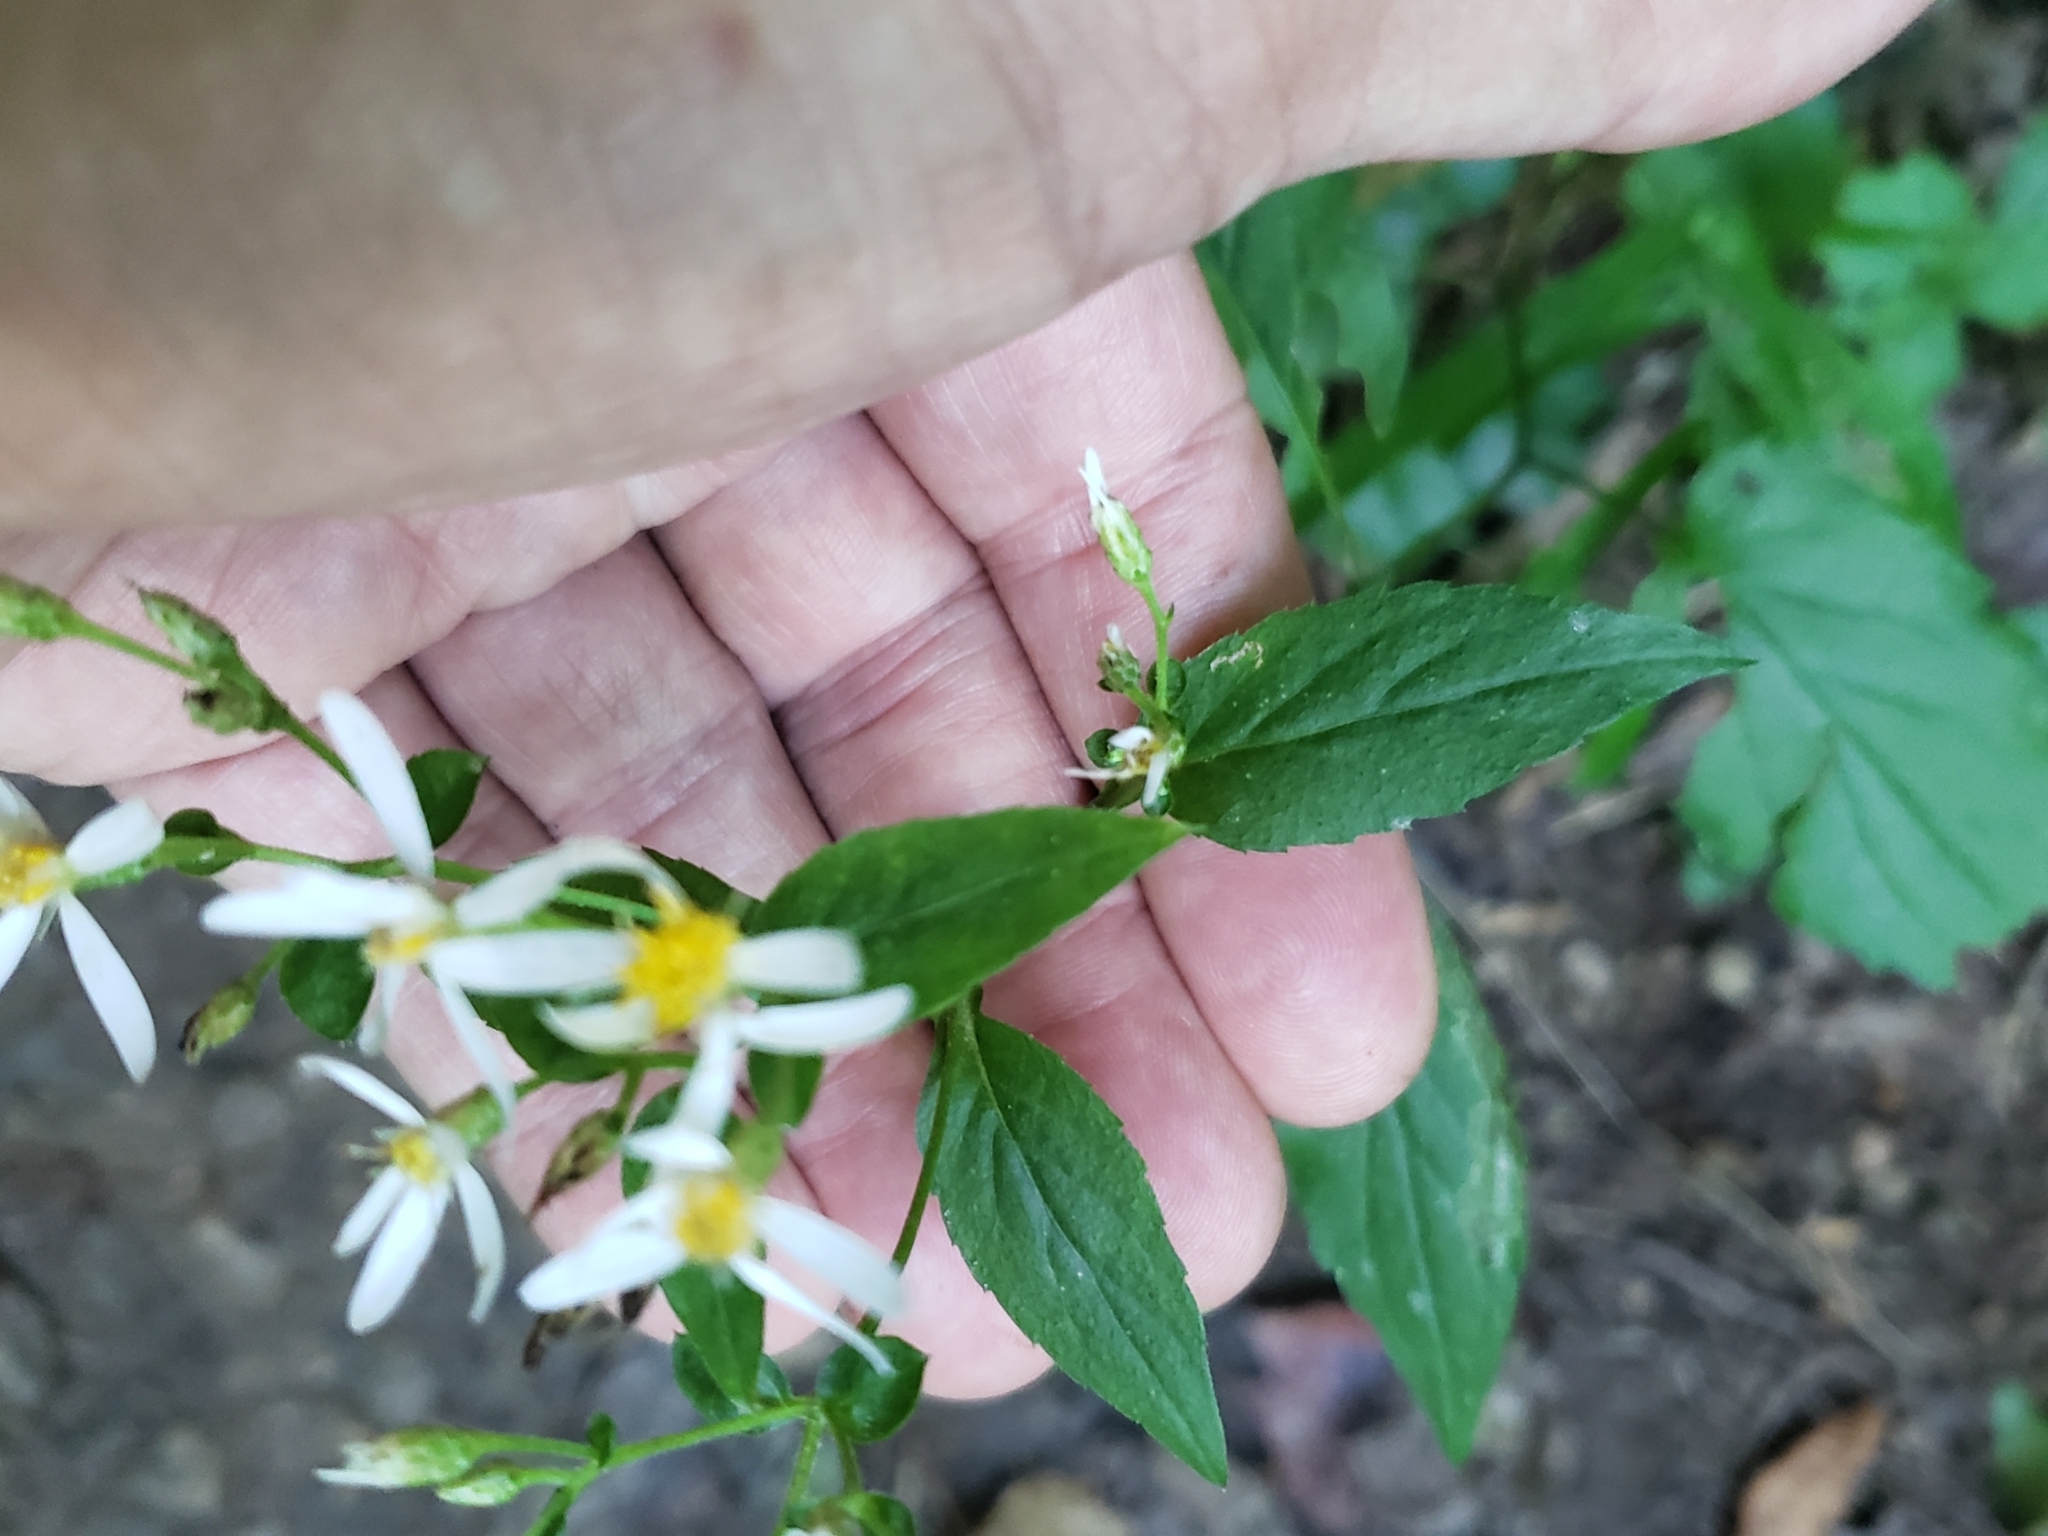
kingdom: Plantae
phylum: Tracheophyta
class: Magnoliopsida
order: Asterales
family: Asteraceae
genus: Eurybia
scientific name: Eurybia divaricata
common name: White wood aster
